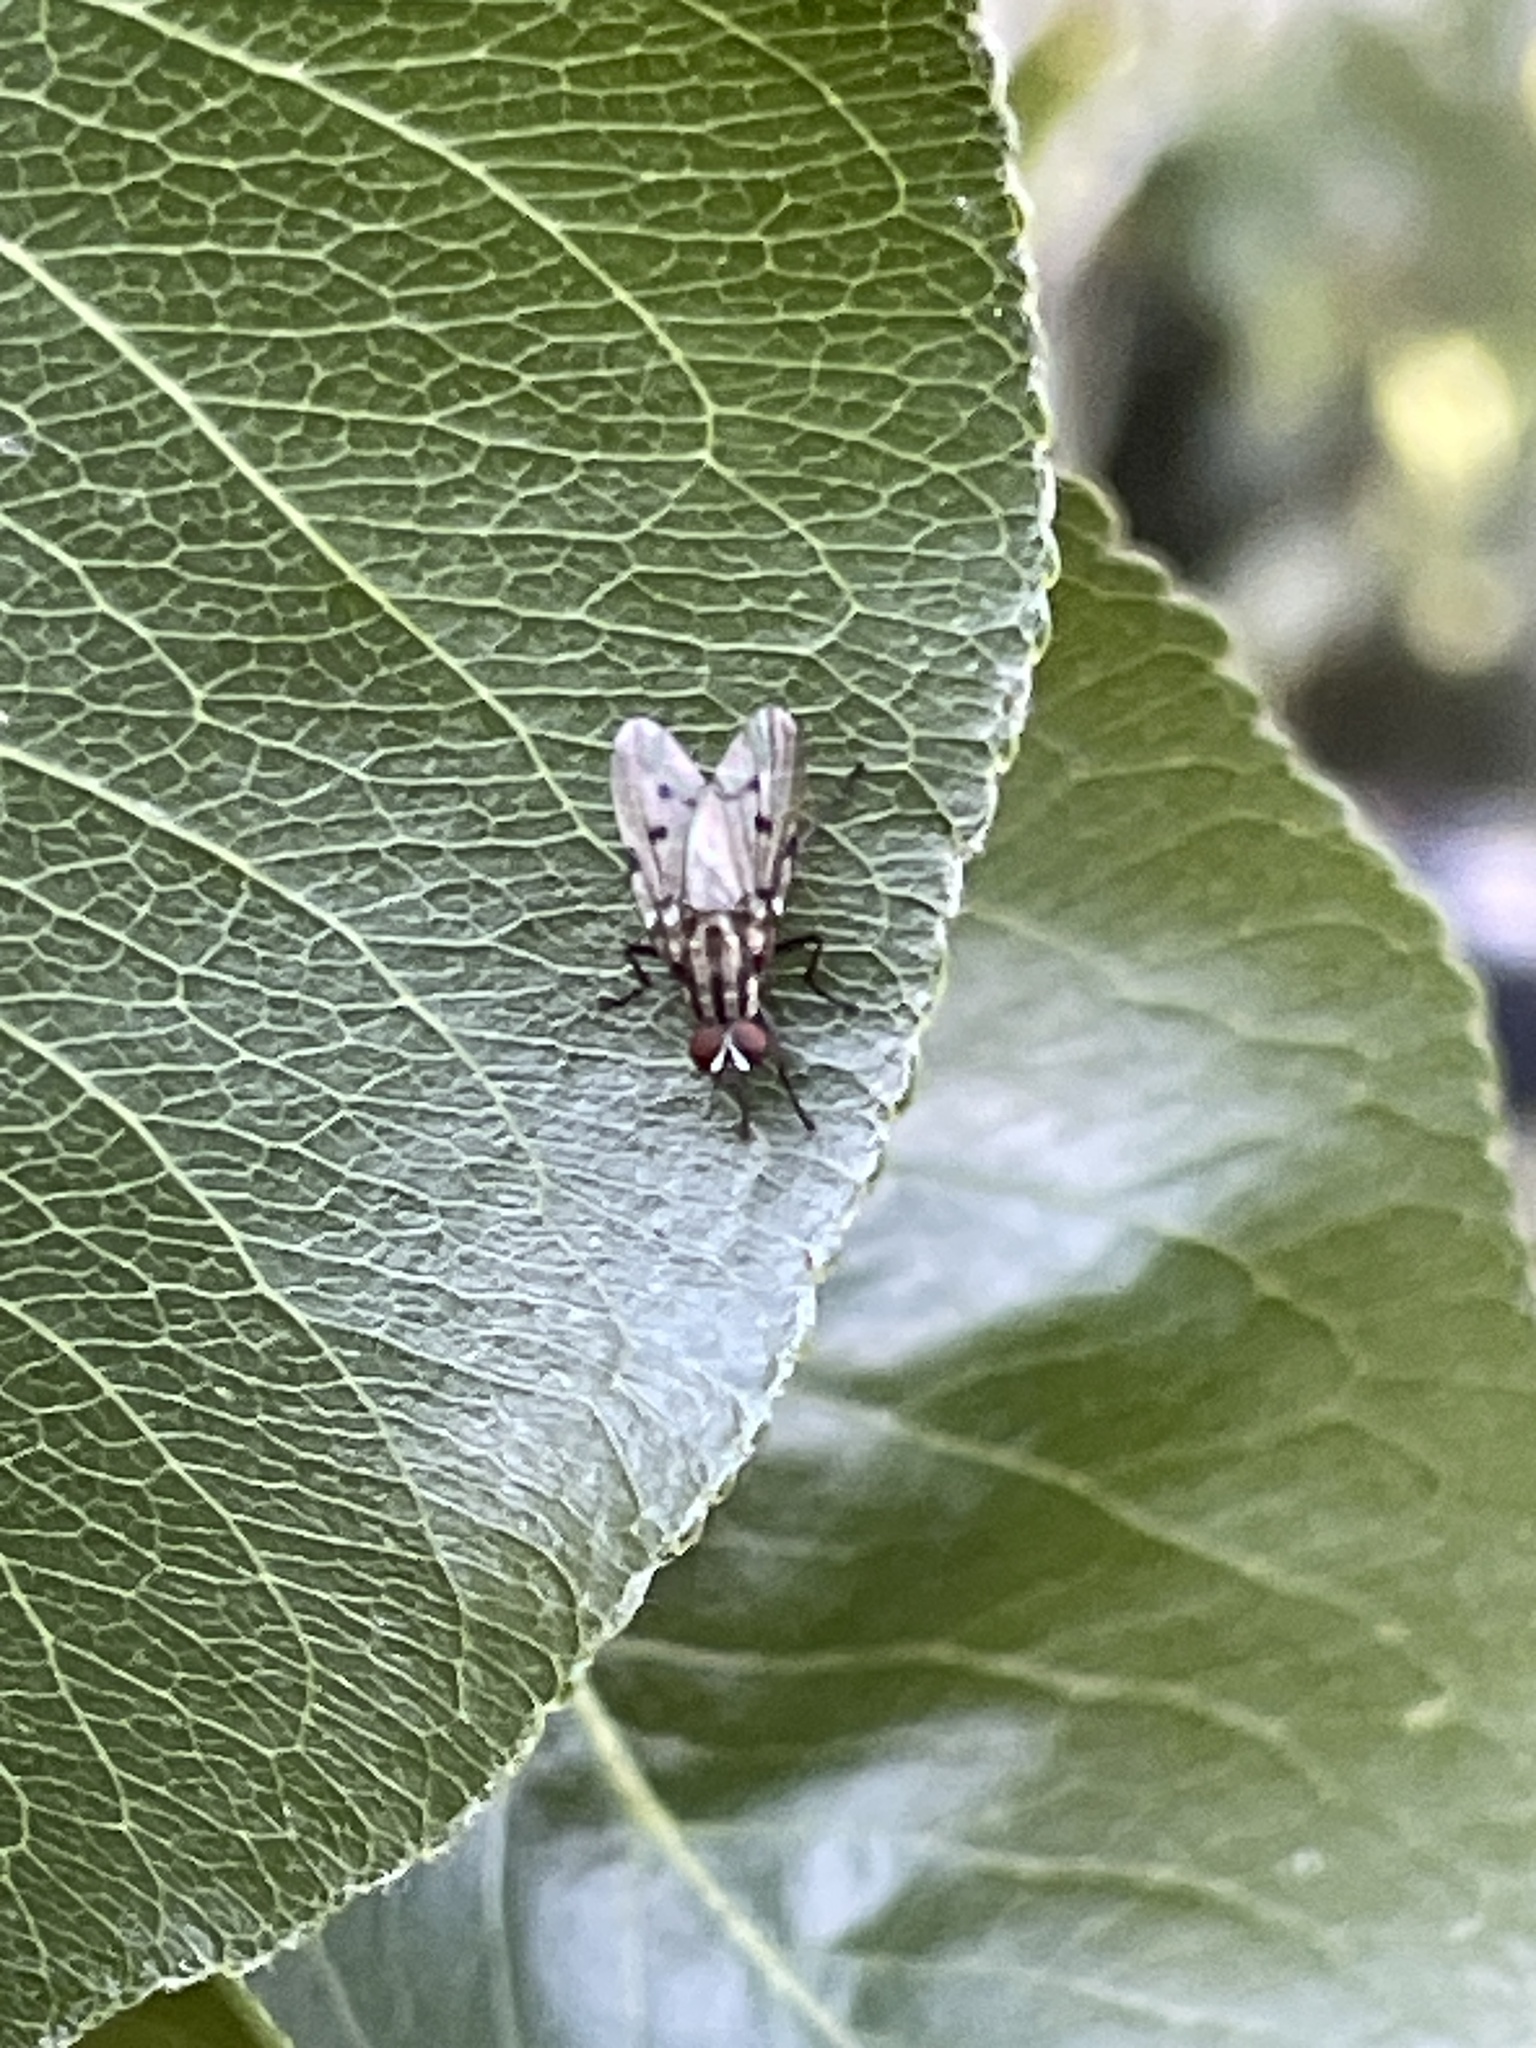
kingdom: Animalia
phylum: Arthropoda
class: Insecta
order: Diptera
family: Anthomyiidae
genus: Anthomyia
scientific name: Anthomyia punctipennis
